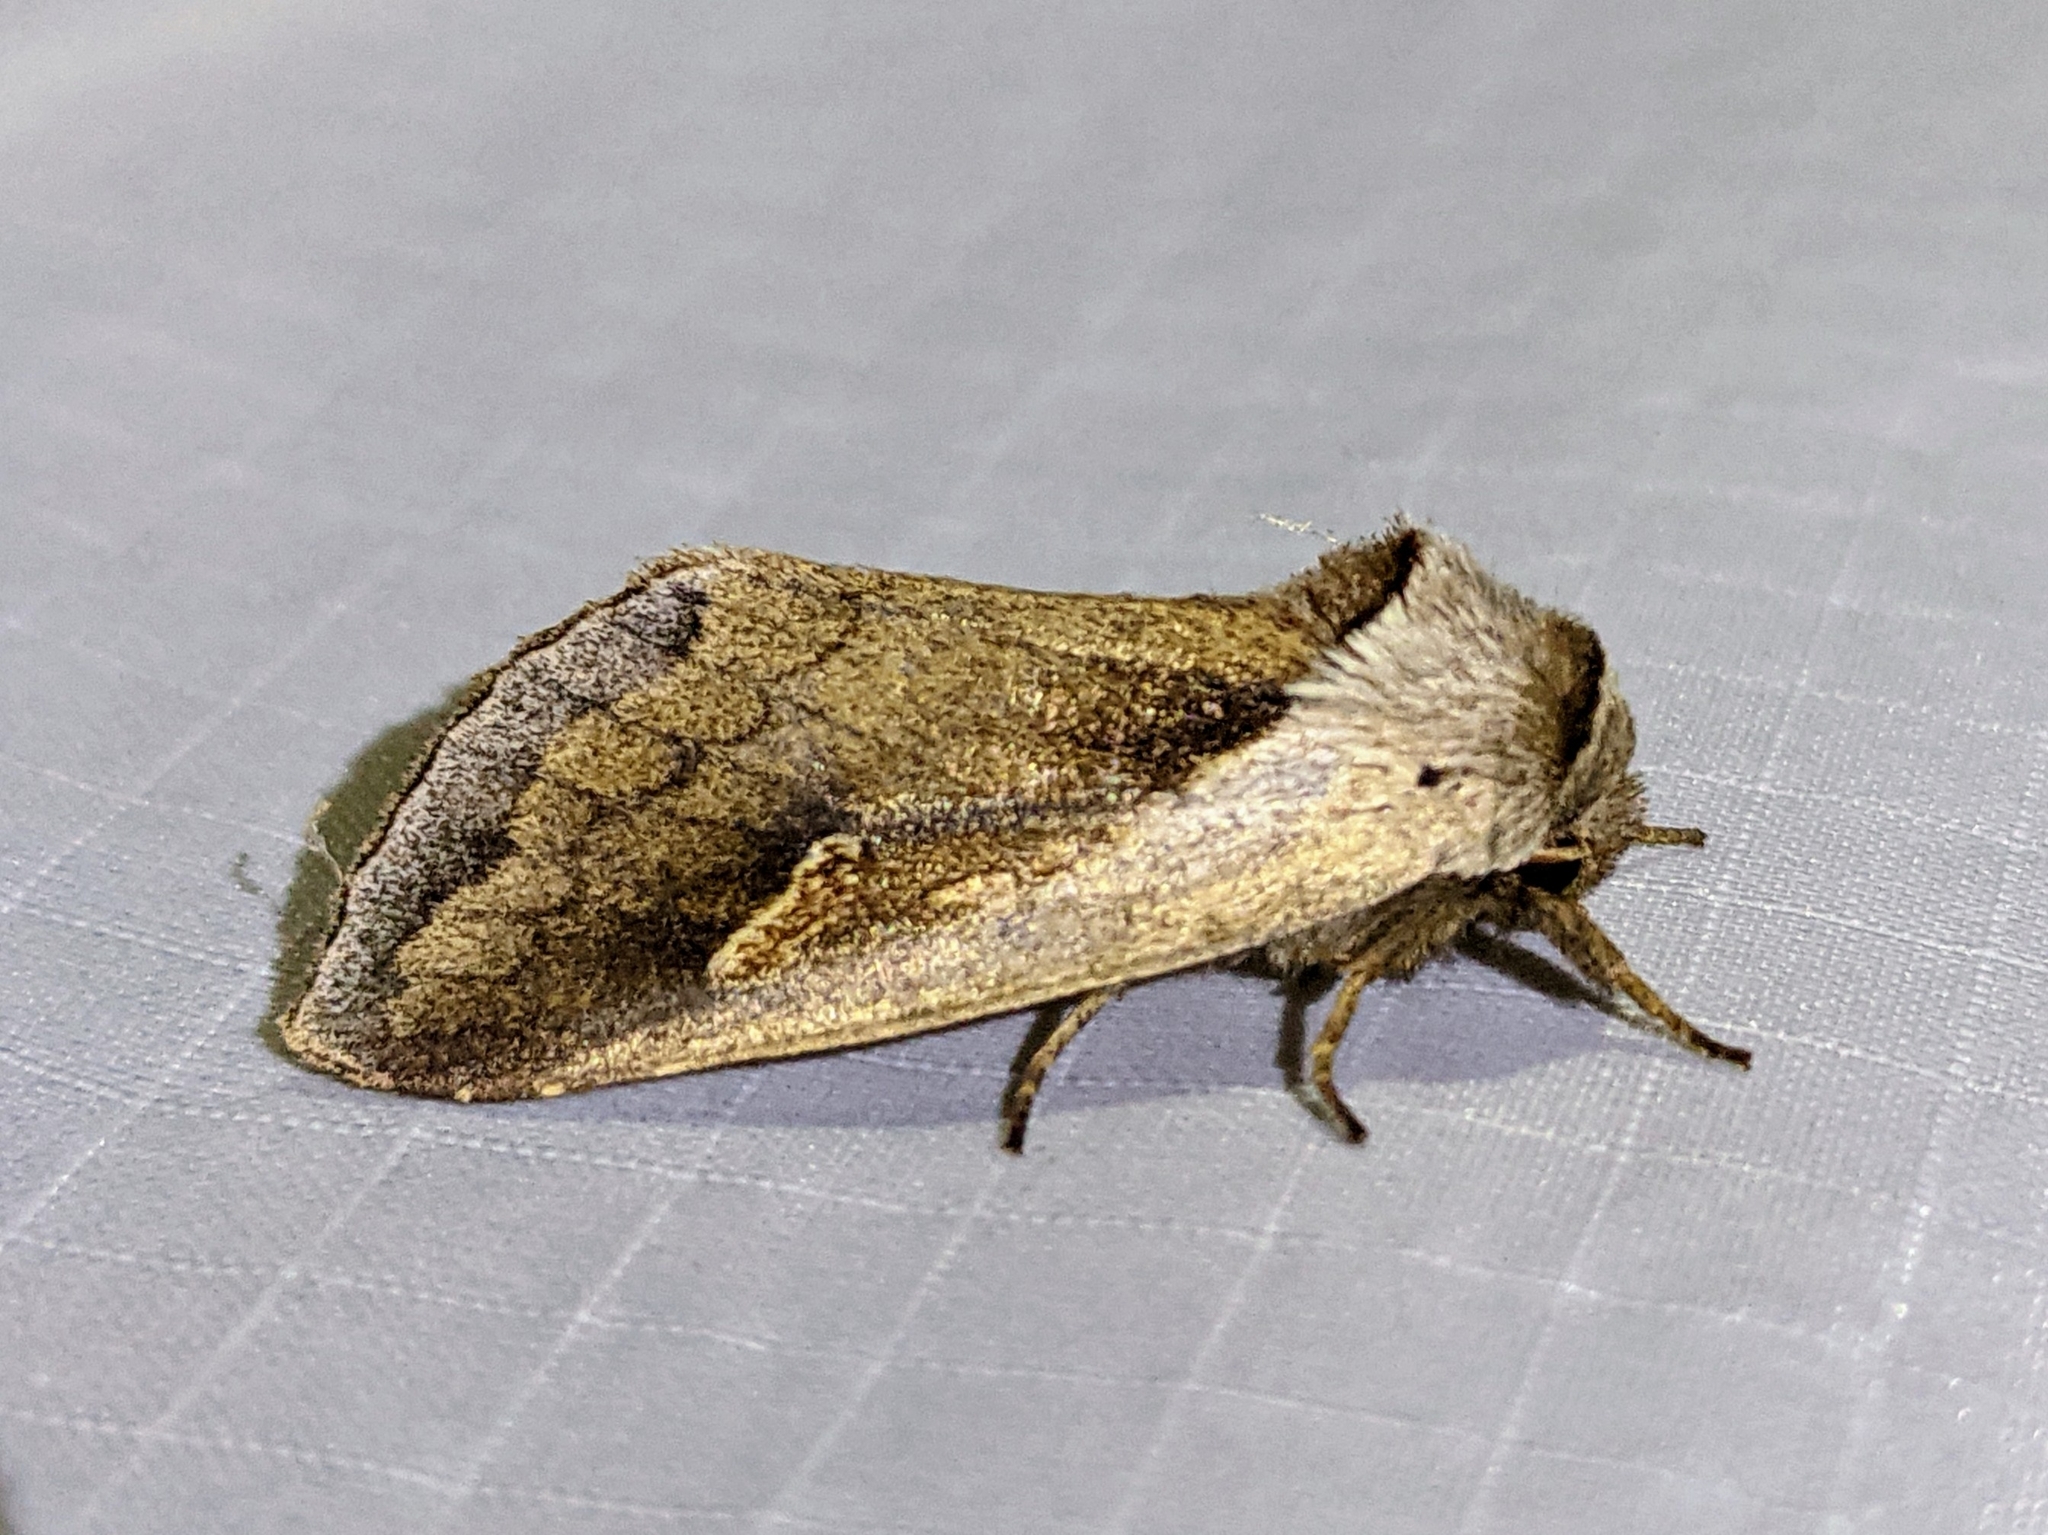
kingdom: Animalia
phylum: Arthropoda
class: Insecta
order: Lepidoptera
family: Noctuidae
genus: Bellura
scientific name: Bellura obliqua
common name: Cattail borer moth
